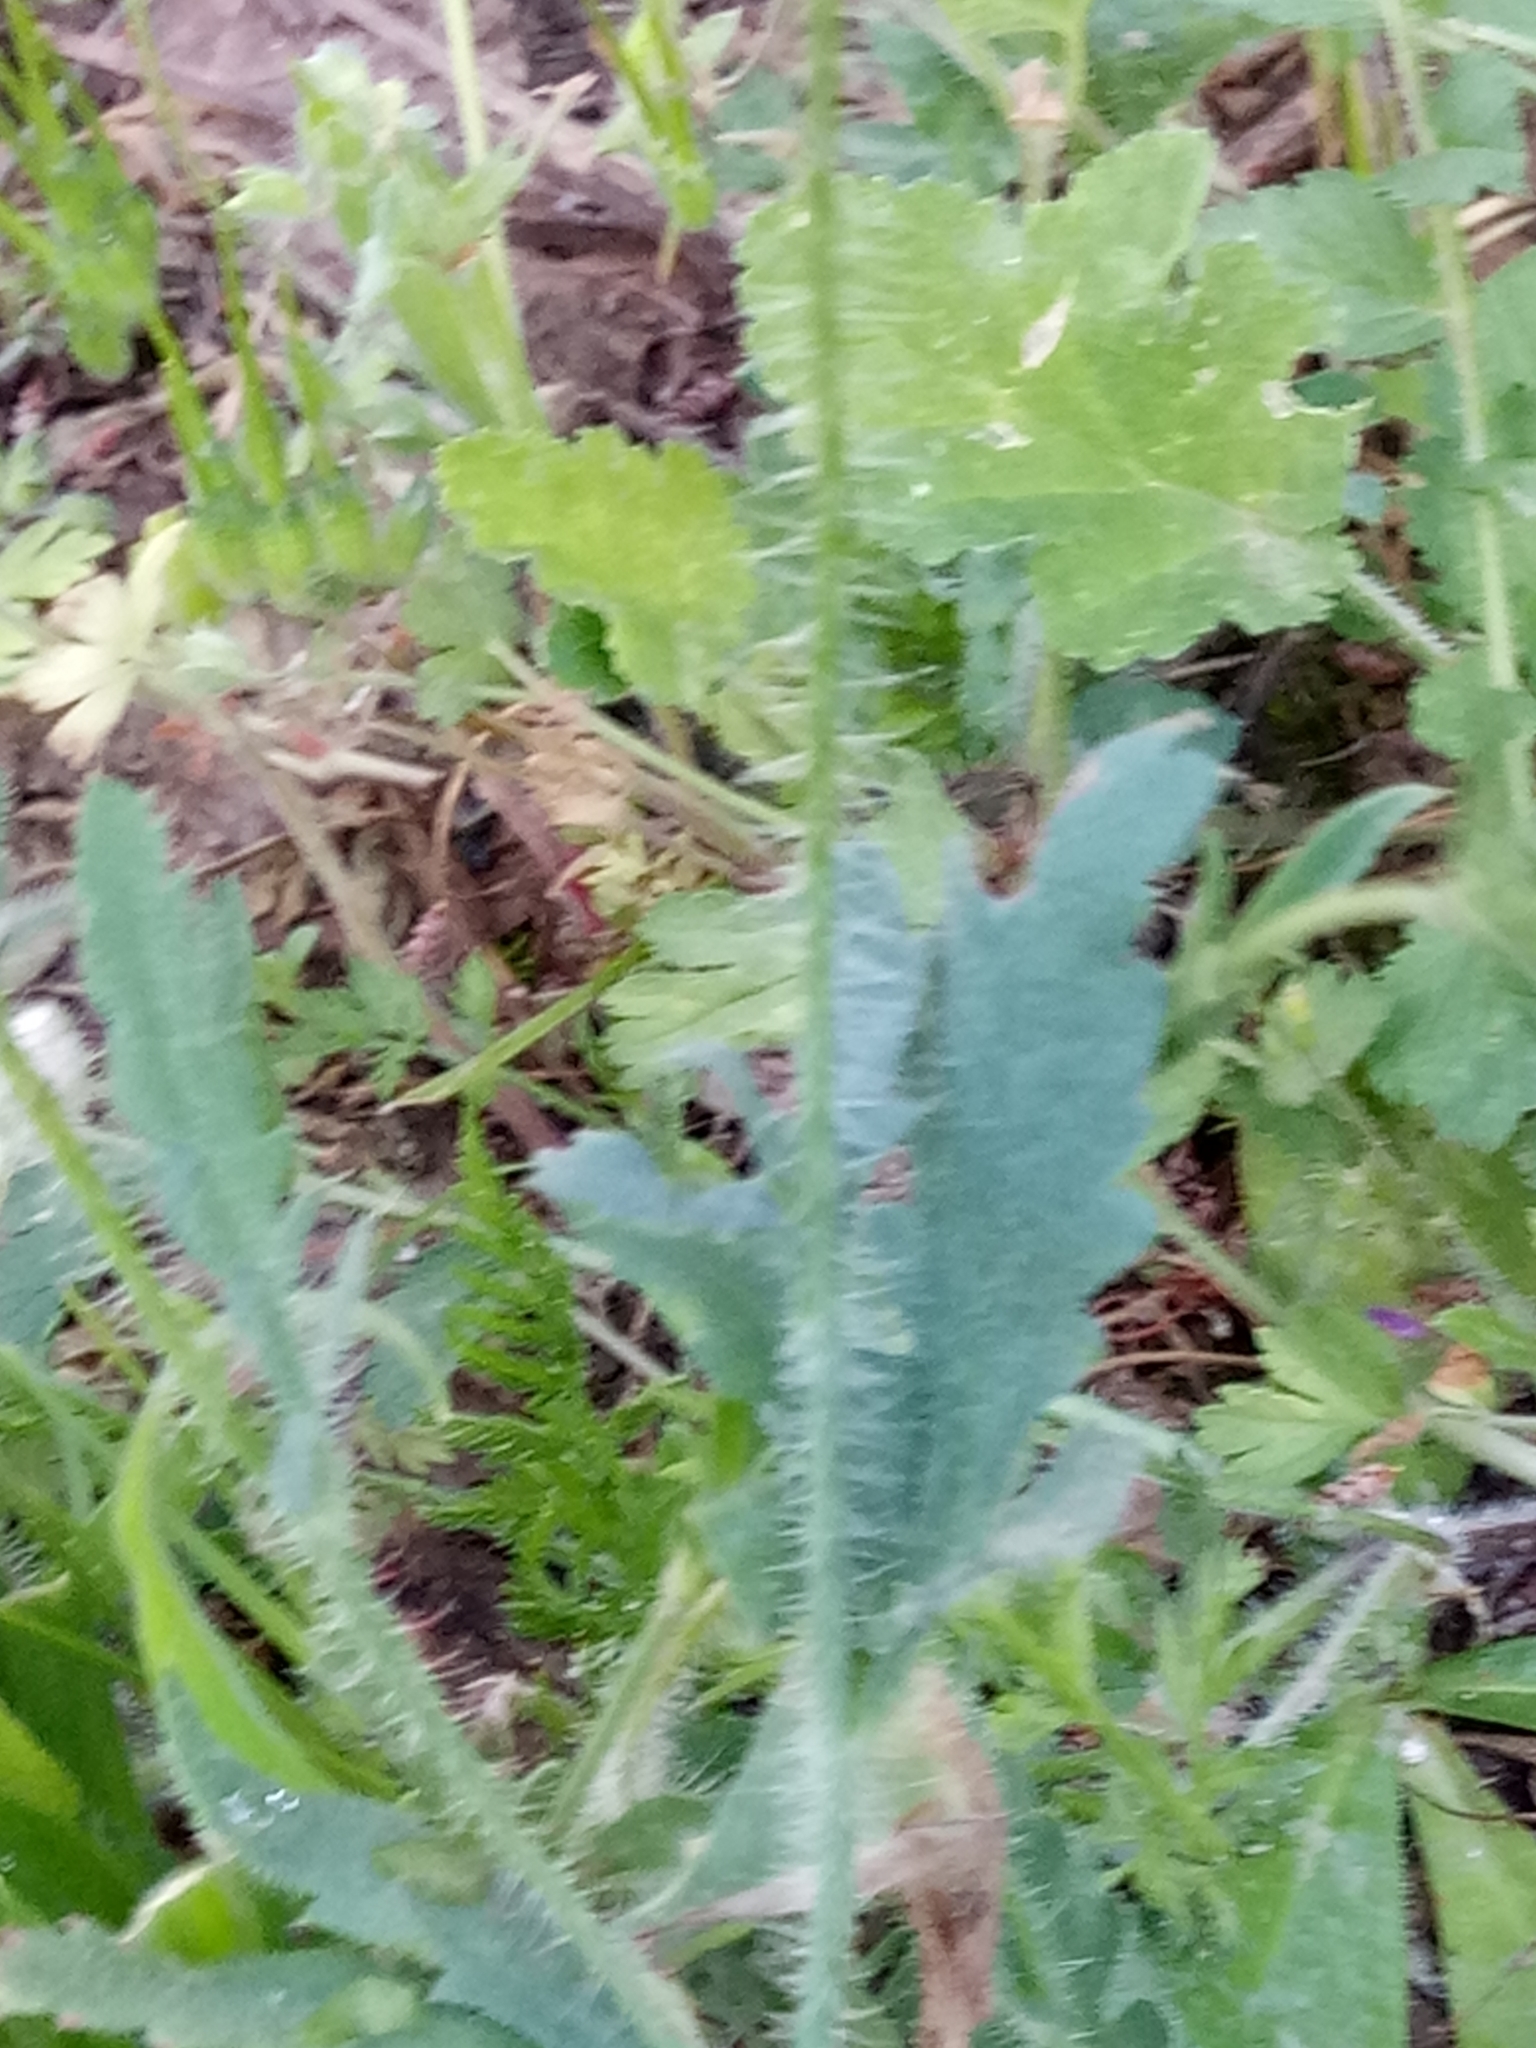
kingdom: Plantae
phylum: Tracheophyta
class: Magnoliopsida
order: Ranunculales
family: Papaveraceae
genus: Papaver
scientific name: Papaver rhoeas
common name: Corn poppy
